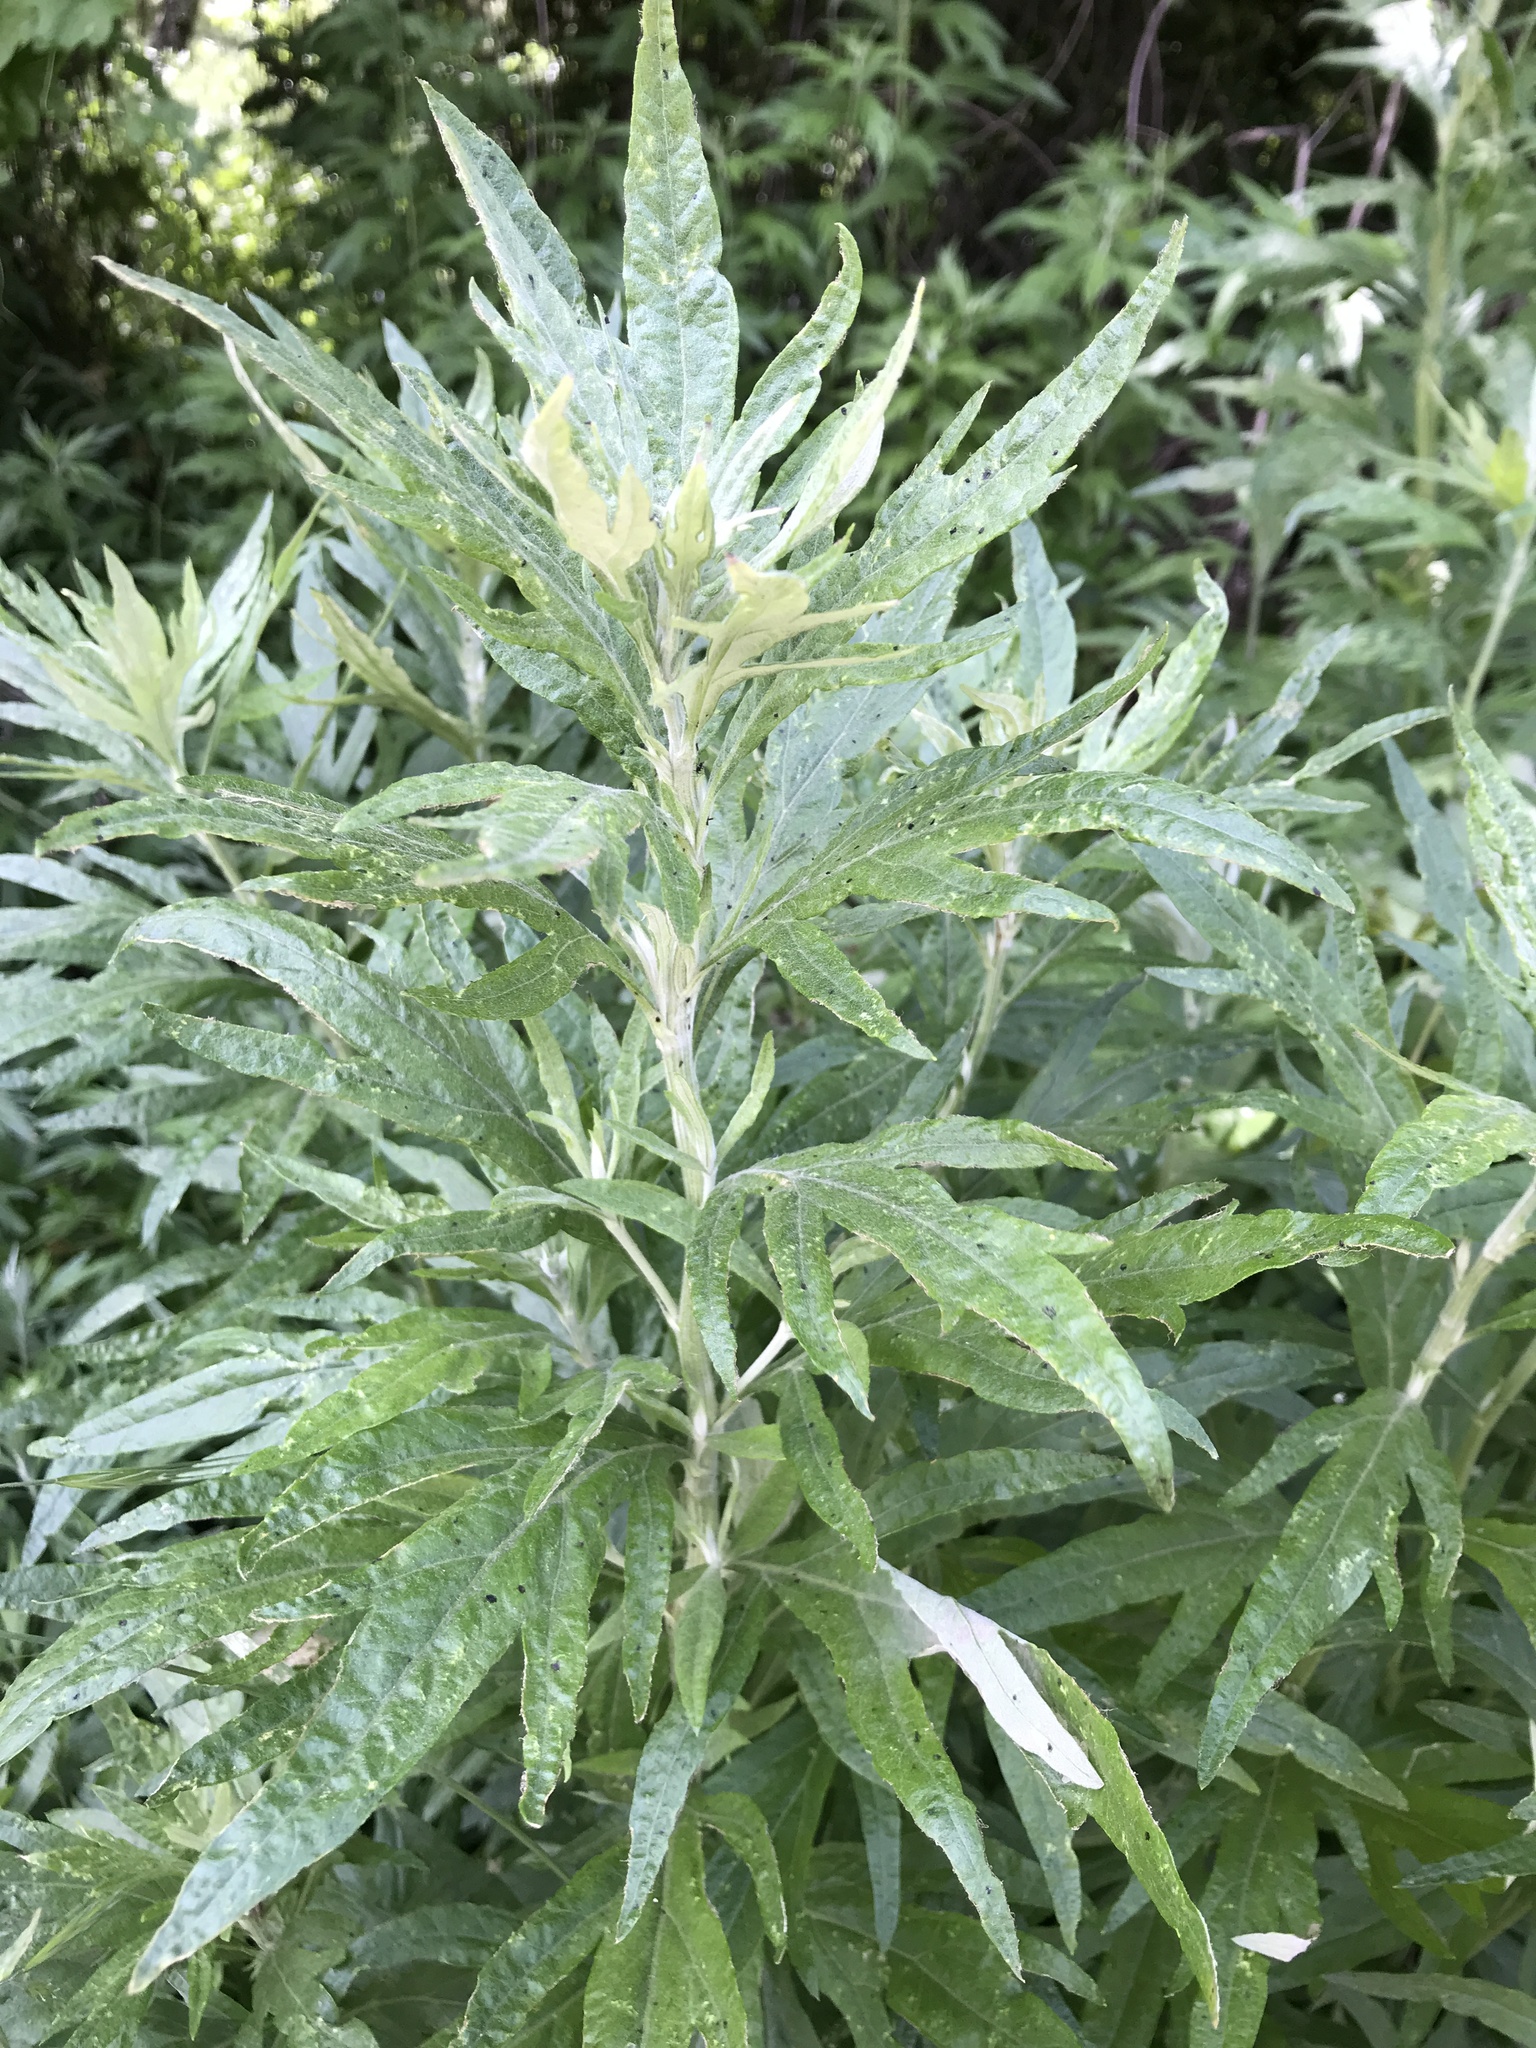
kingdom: Plantae
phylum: Tracheophyta
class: Magnoliopsida
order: Asterales
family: Asteraceae
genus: Artemisia
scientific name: Artemisia douglasiana
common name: Northwest mugwort
